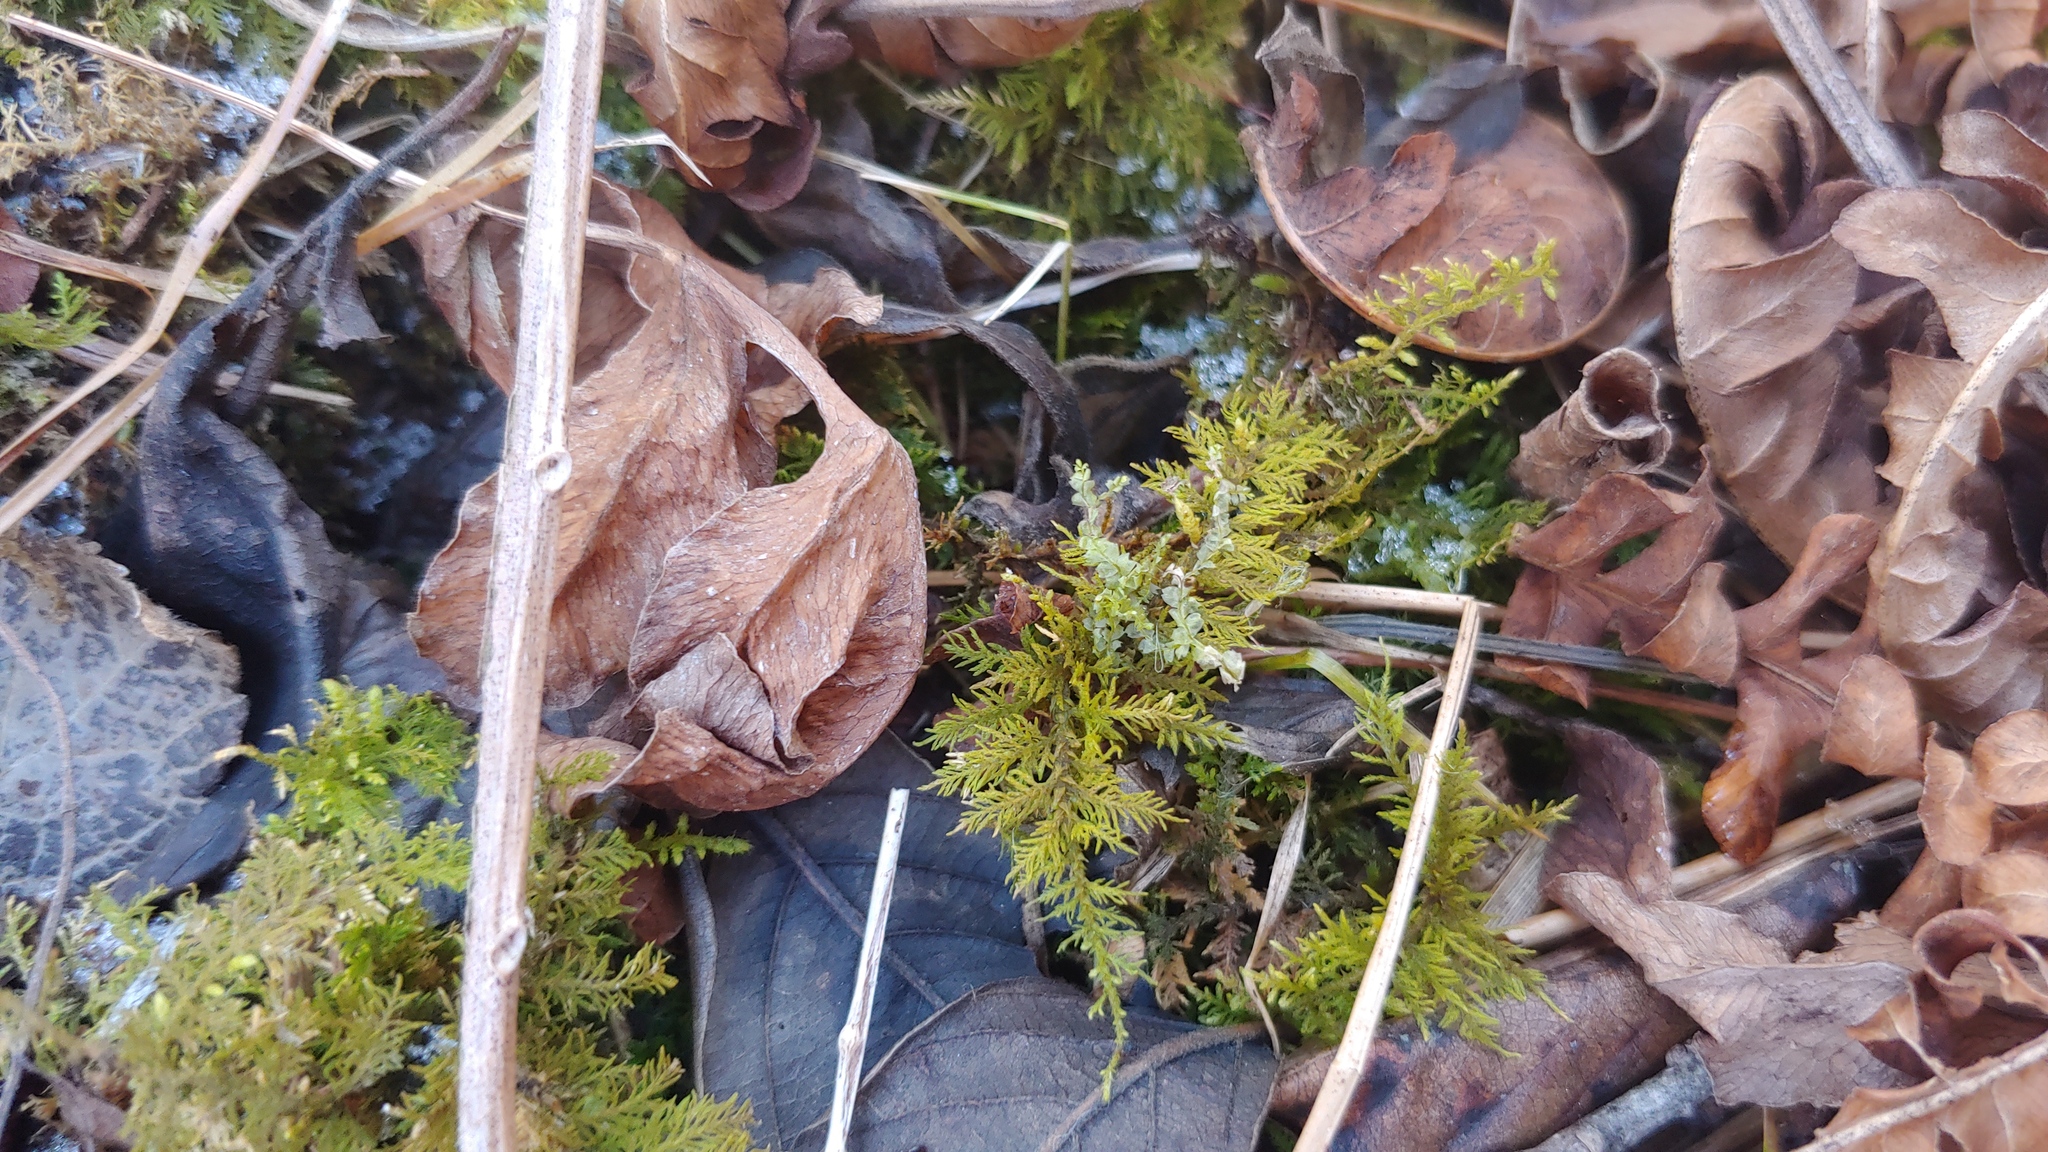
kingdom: Plantae
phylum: Bryophyta
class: Bryopsida
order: Hypnales
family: Thuidiaceae
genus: Thuidium
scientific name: Thuidium delicatulum
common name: Delicate fern moss
